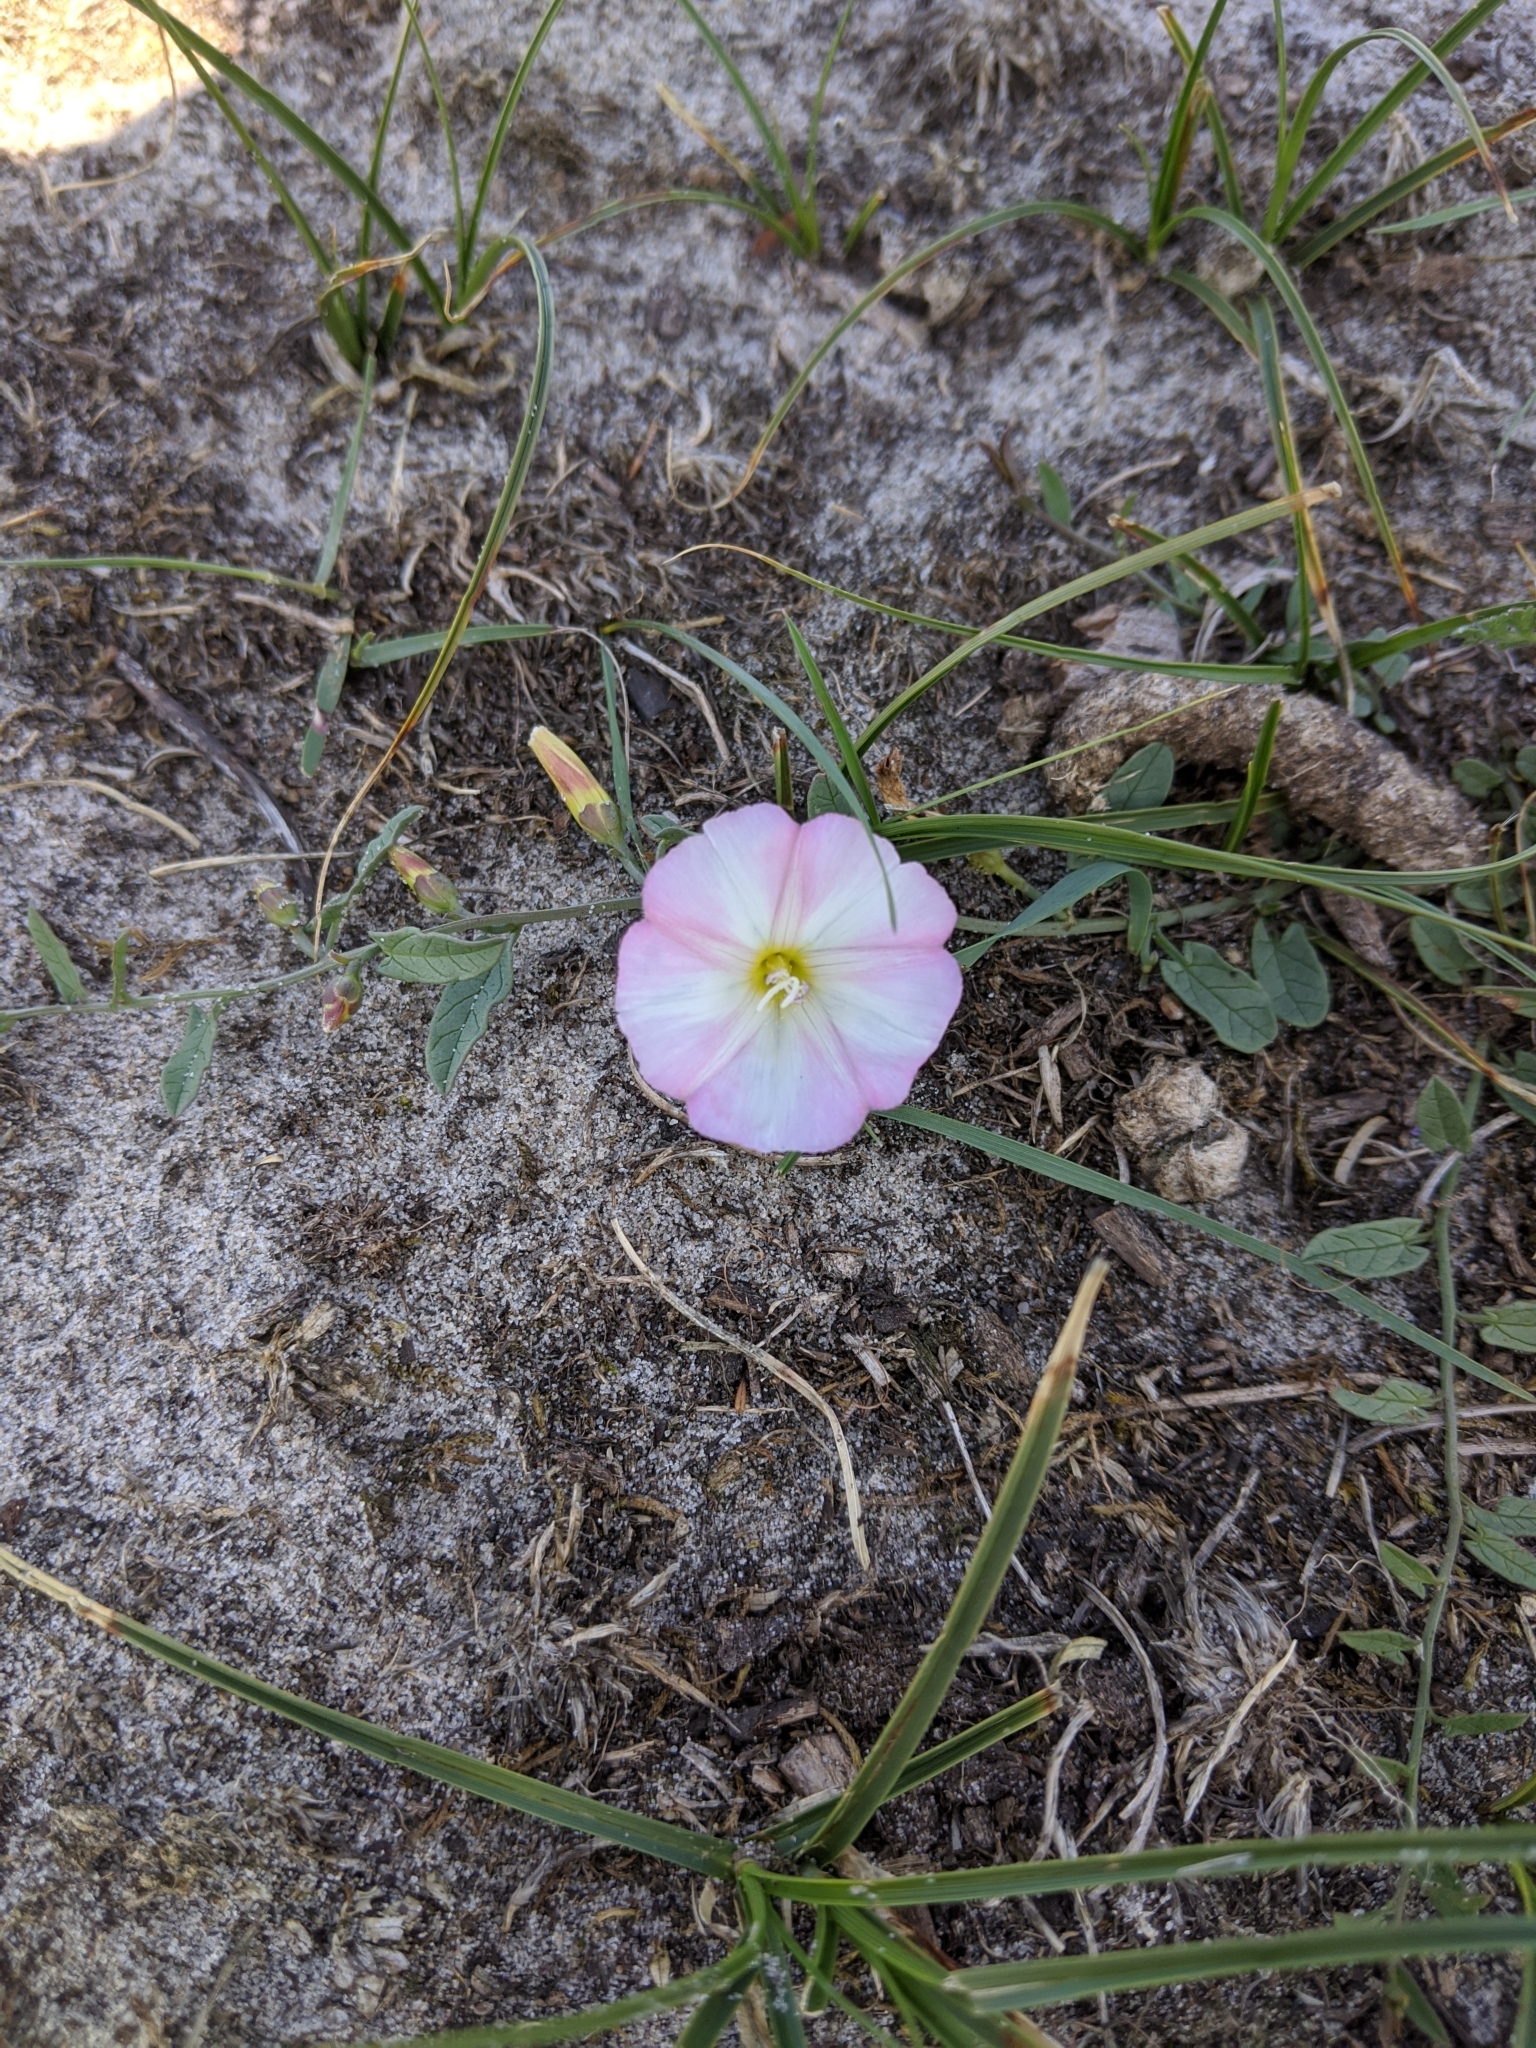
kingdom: Plantae
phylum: Tracheophyta
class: Magnoliopsida
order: Solanales
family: Convolvulaceae
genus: Convolvulus
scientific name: Convolvulus arvensis
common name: Field bindweed
